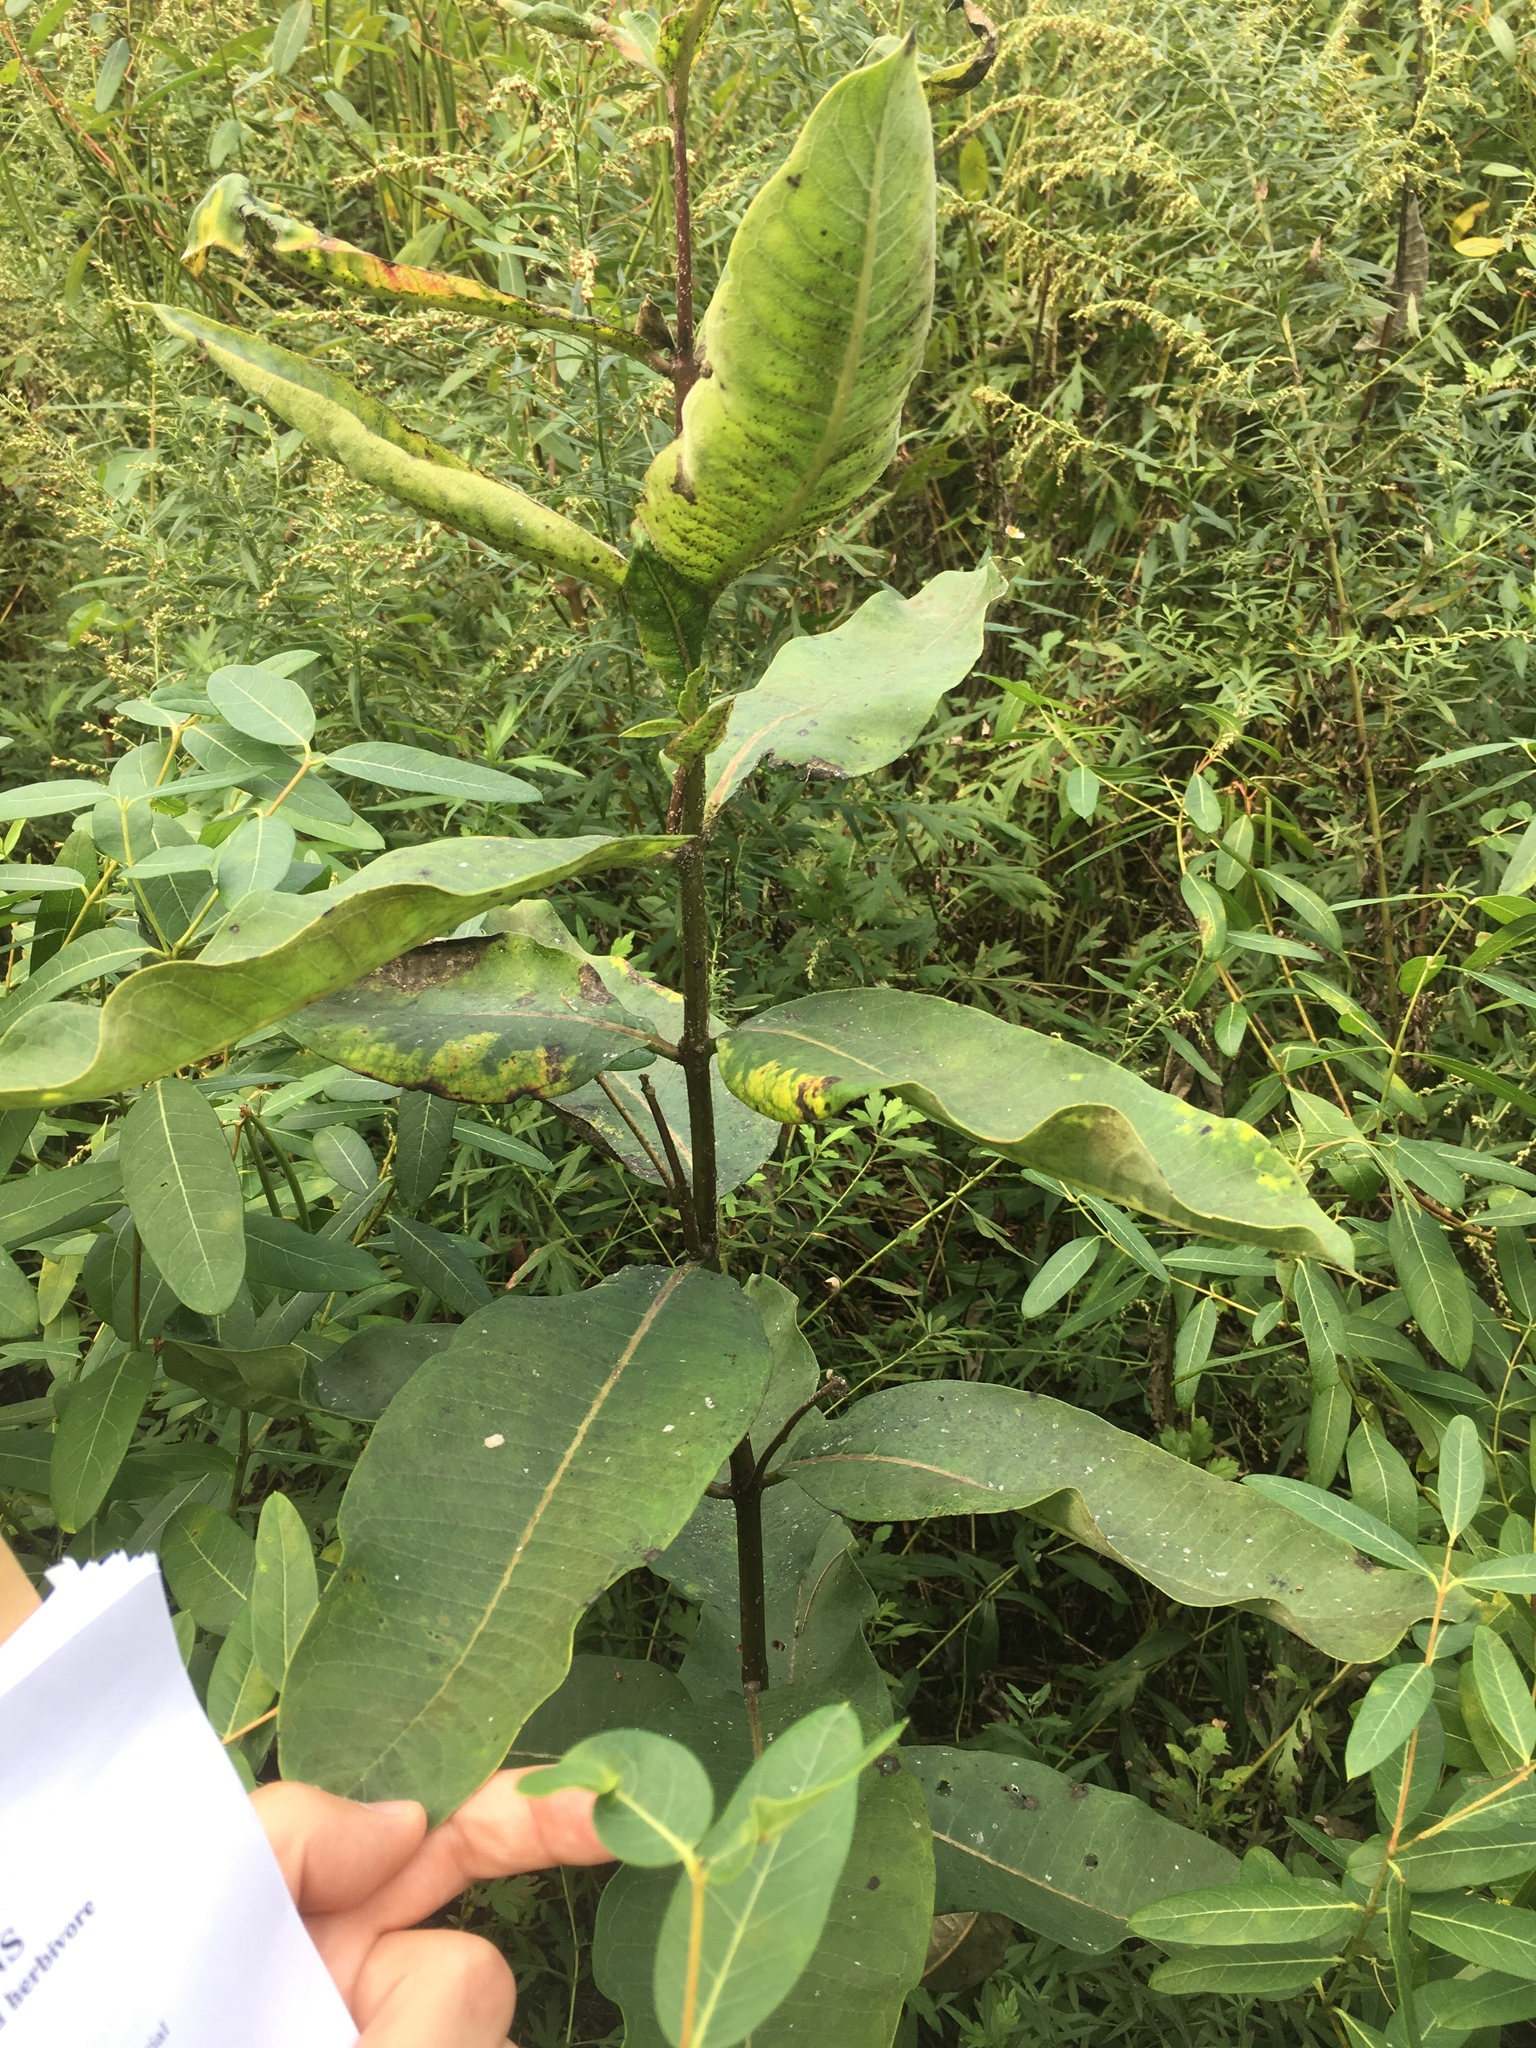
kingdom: Plantae
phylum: Tracheophyta
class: Magnoliopsida
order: Gentianales
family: Apocynaceae
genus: Asclepias
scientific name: Asclepias syriaca
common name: Common milkweed
